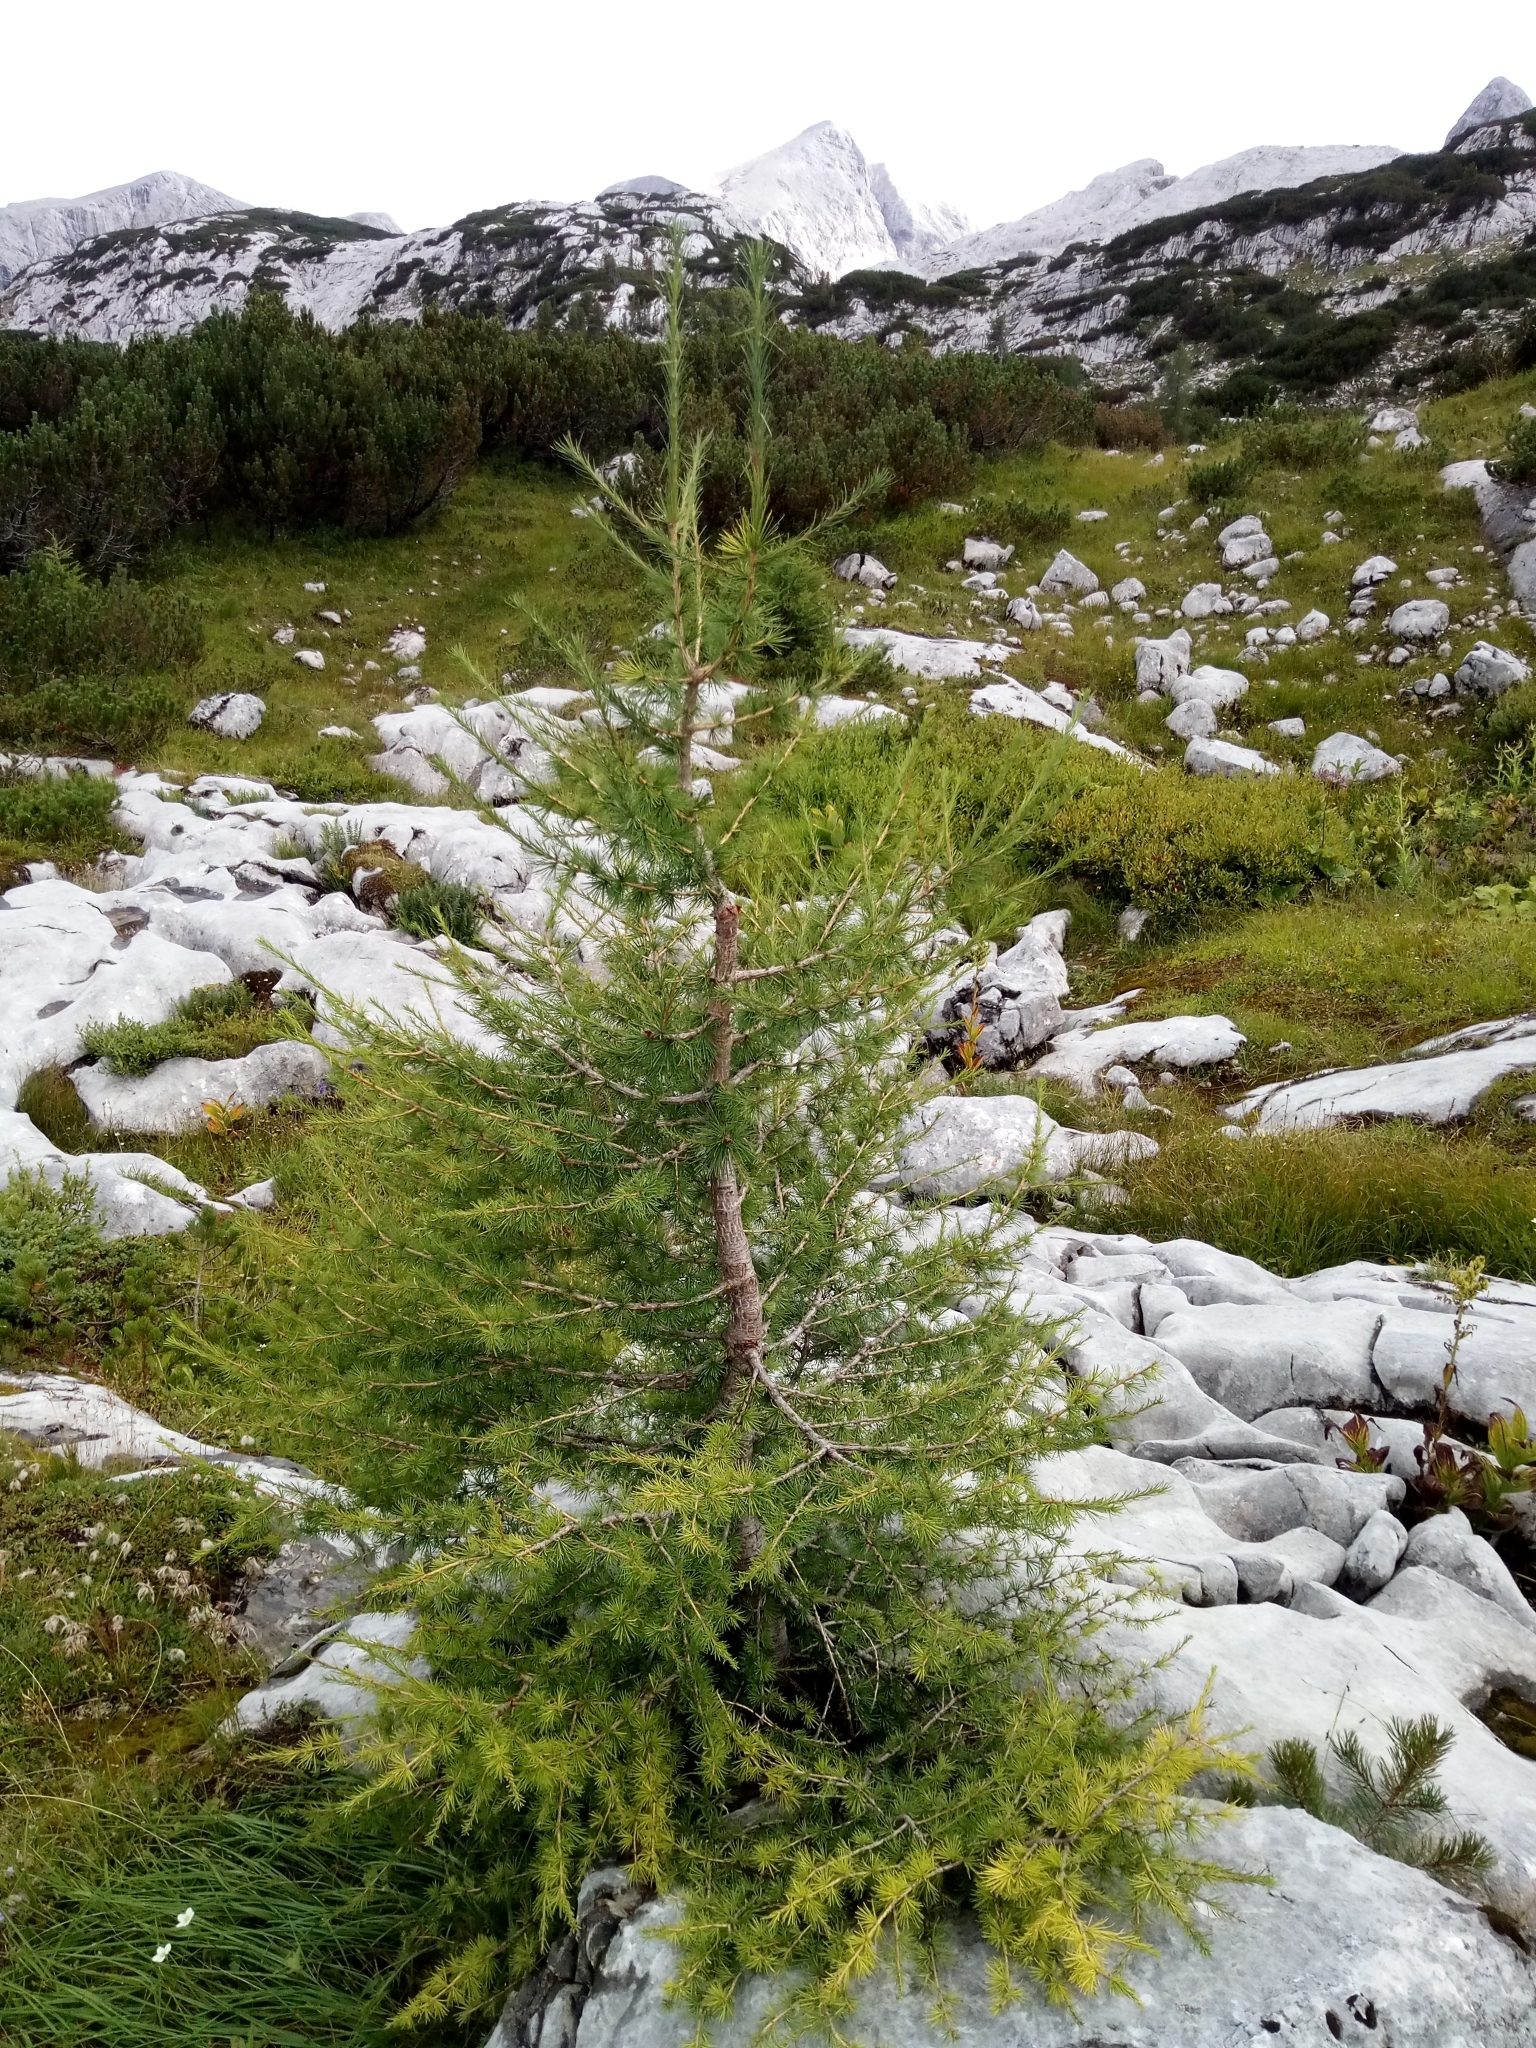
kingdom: Plantae
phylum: Tracheophyta
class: Pinopsida
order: Pinales
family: Pinaceae
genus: Larix
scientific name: Larix decidua
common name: European larch
